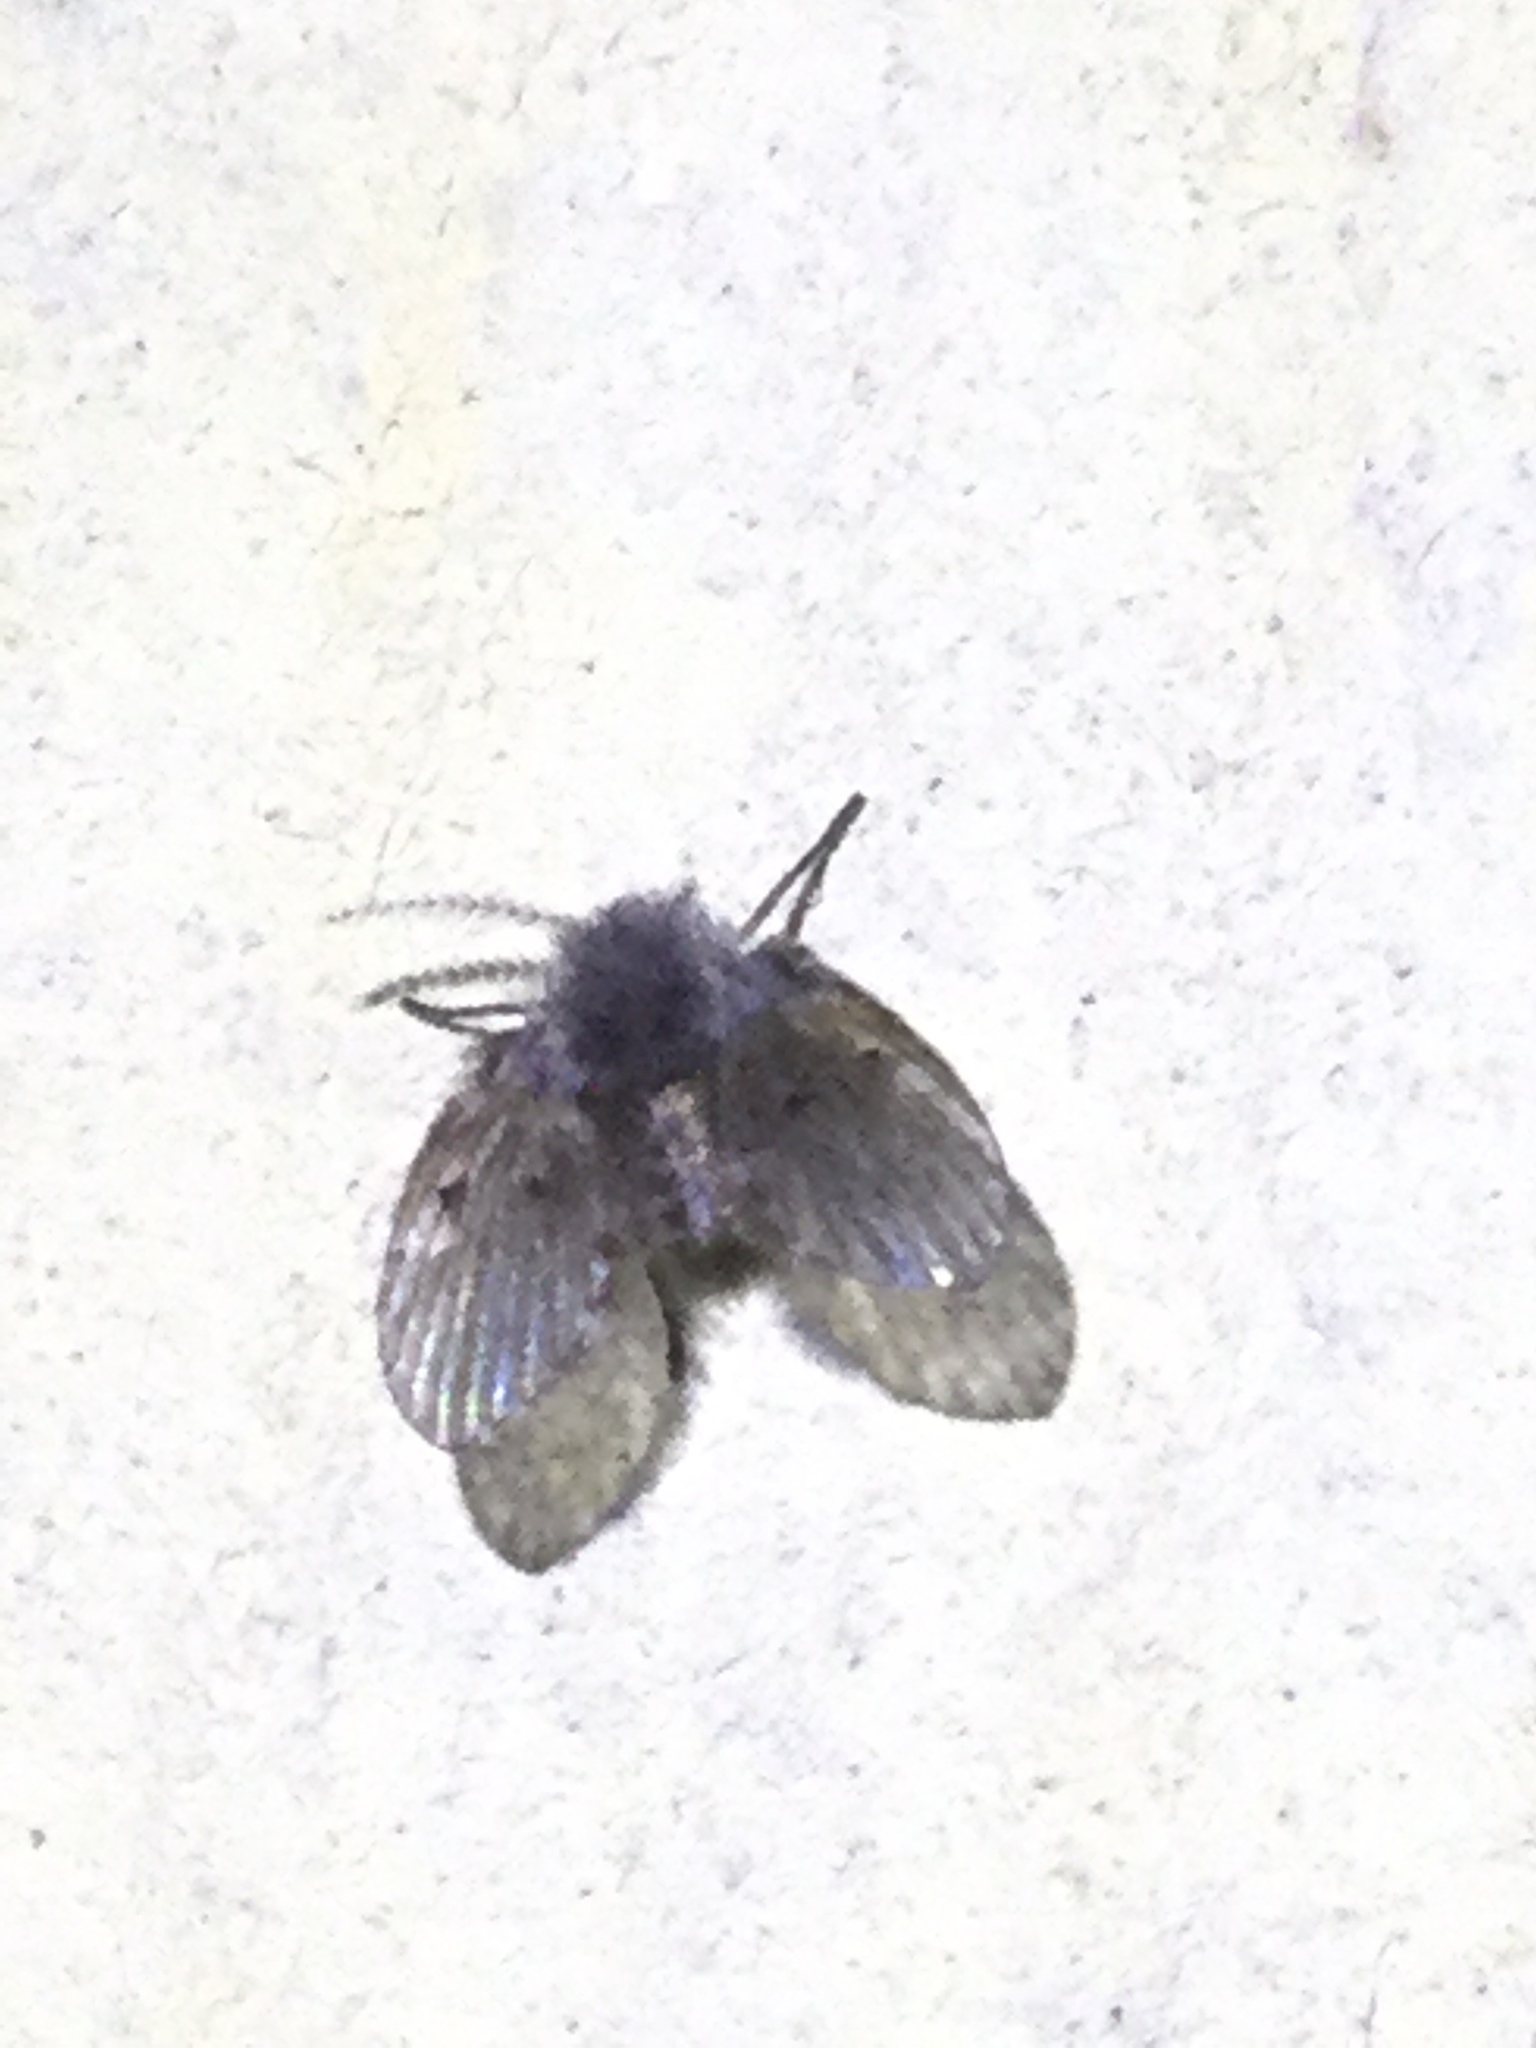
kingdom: Animalia
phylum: Arthropoda
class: Insecta
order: Diptera
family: Psychodidae
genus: Clogmia
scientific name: Clogmia albipunctatus
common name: White-spotted moth fly
